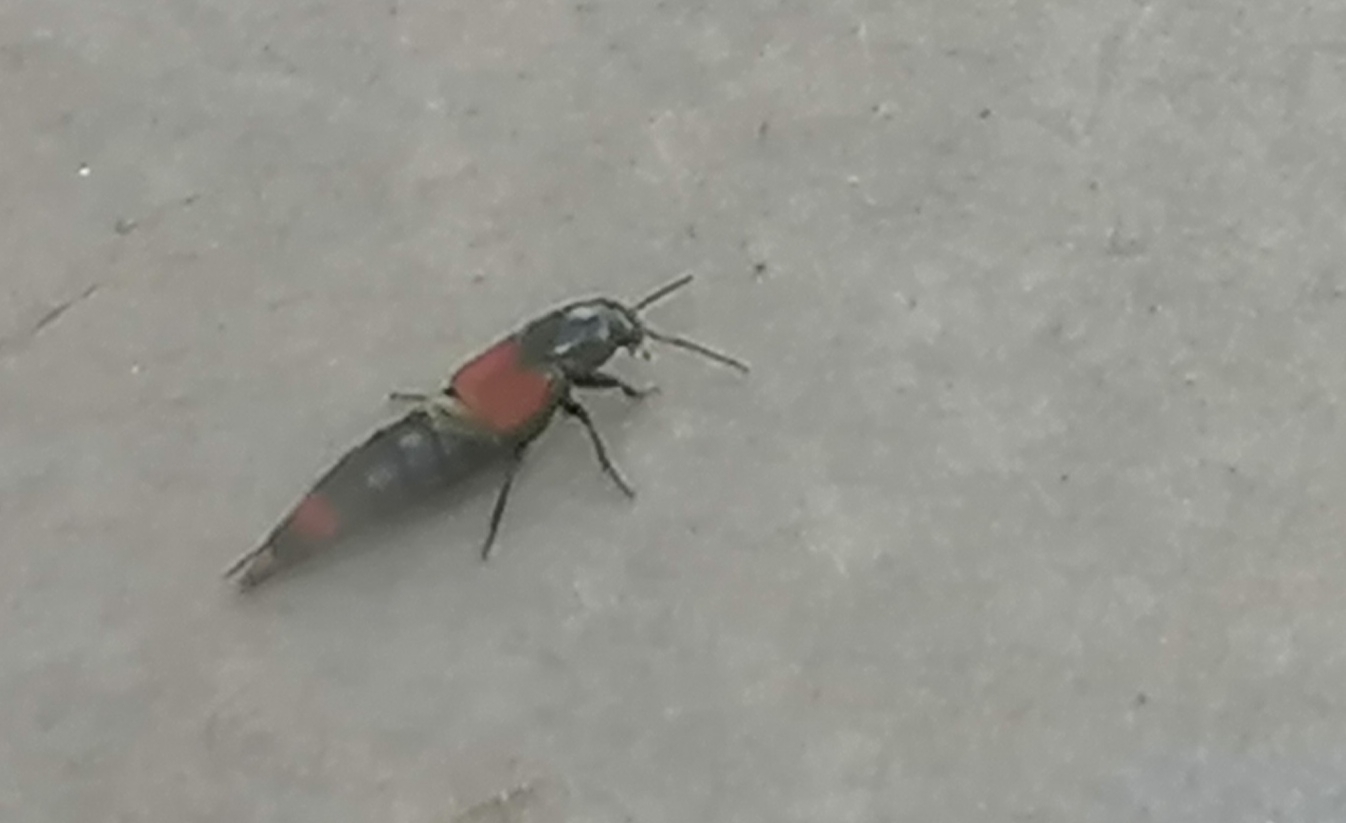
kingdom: Animalia
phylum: Arthropoda
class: Insecta
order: Coleoptera
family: Staphylinidae
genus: Astrapaeus
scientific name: Astrapaeus ulmi
